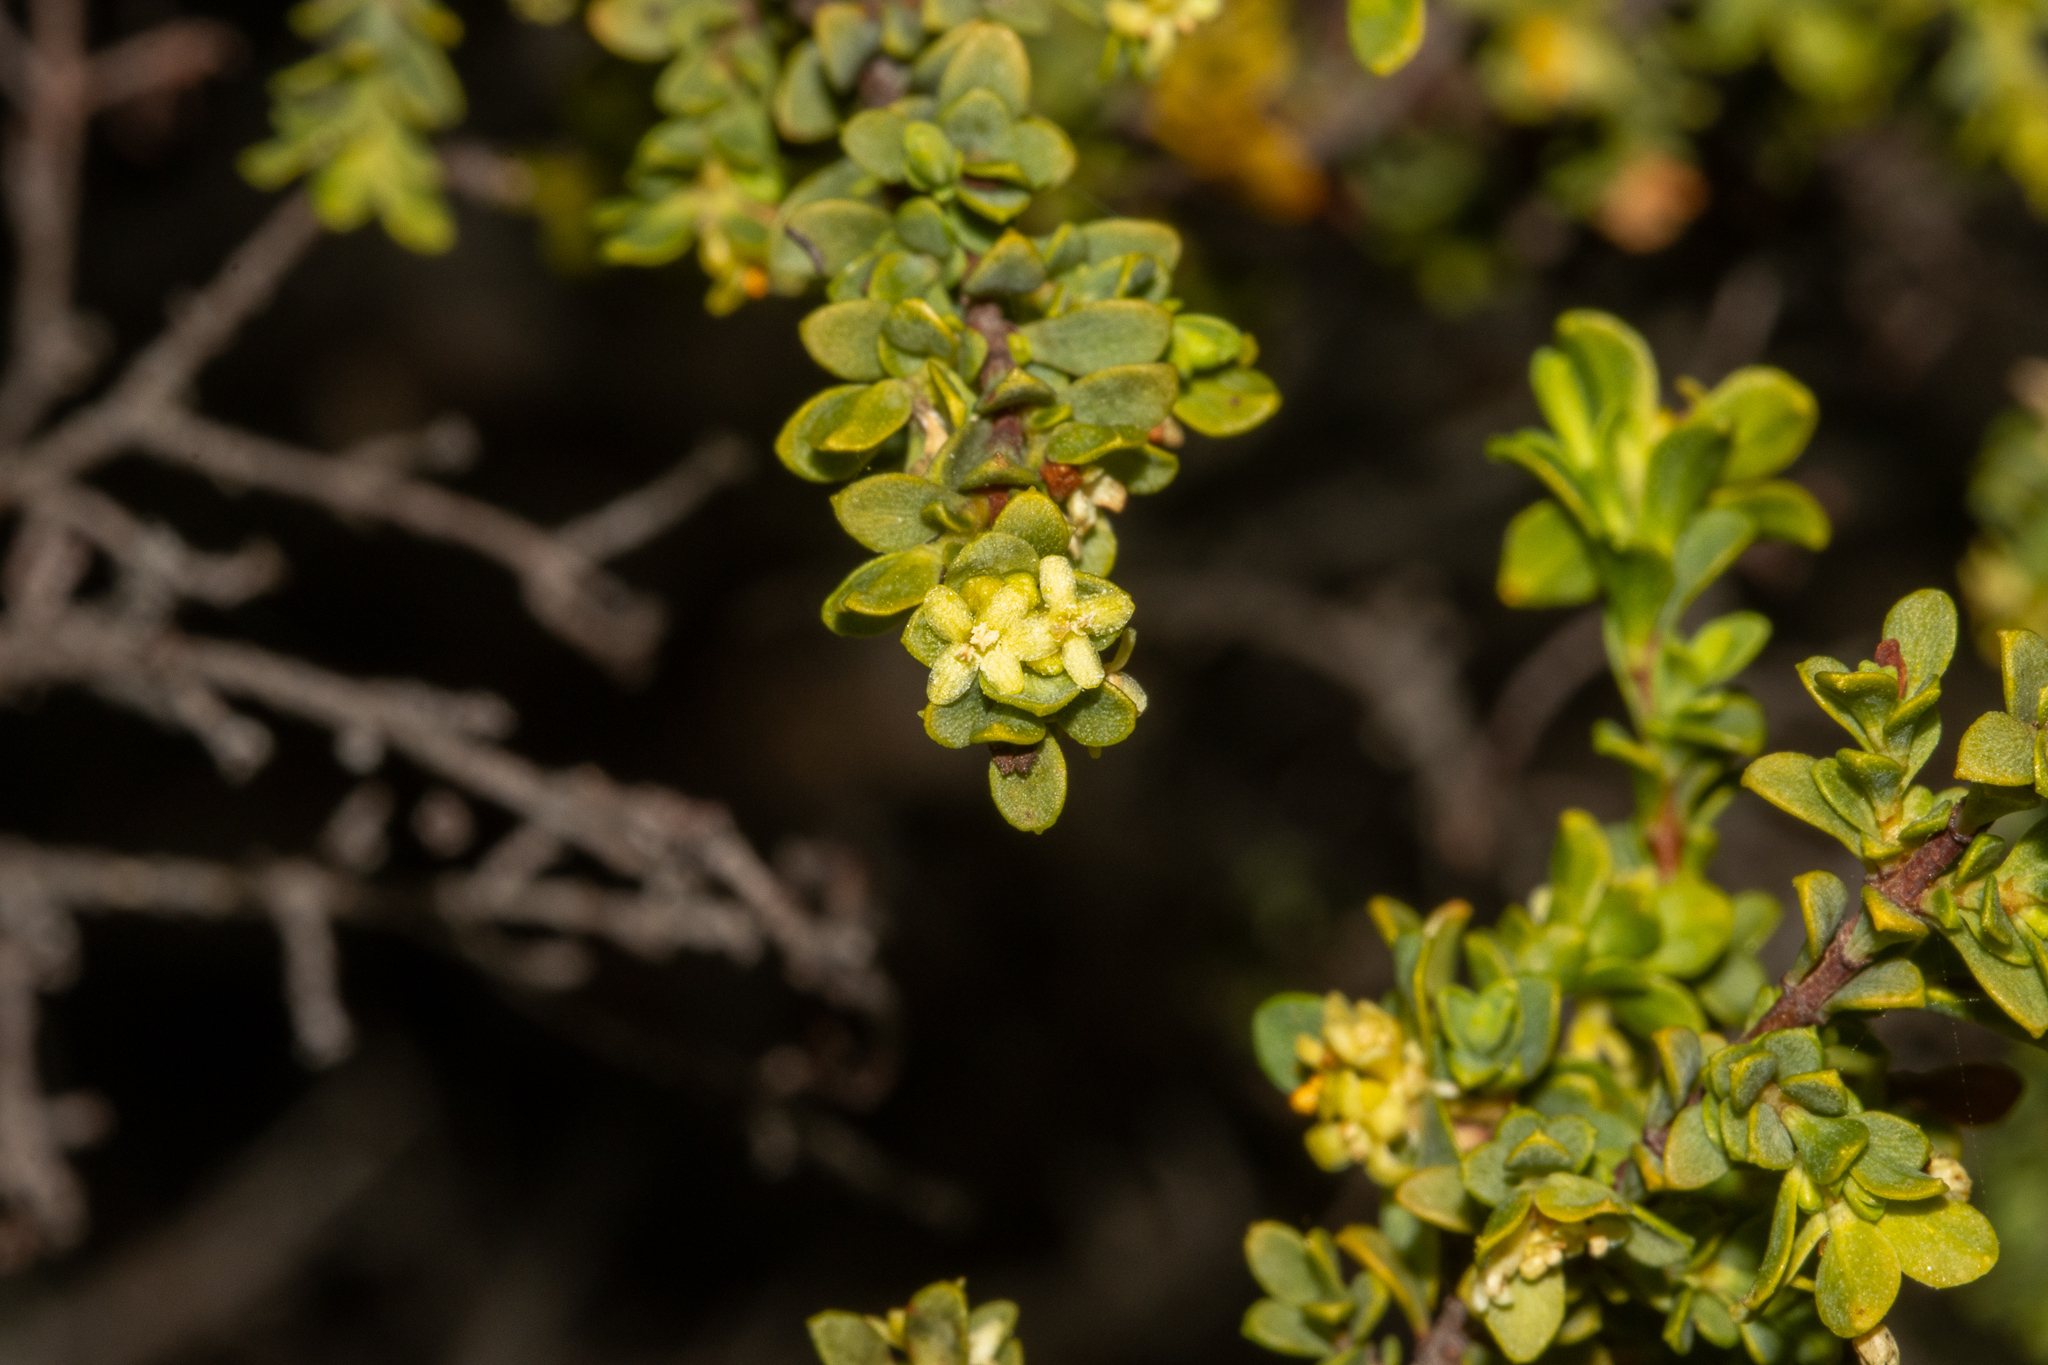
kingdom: Plantae
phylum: Tracheophyta
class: Magnoliopsida
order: Malvales
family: Thymelaeaceae
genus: Pimelea
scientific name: Pimelea serpyllifolia
